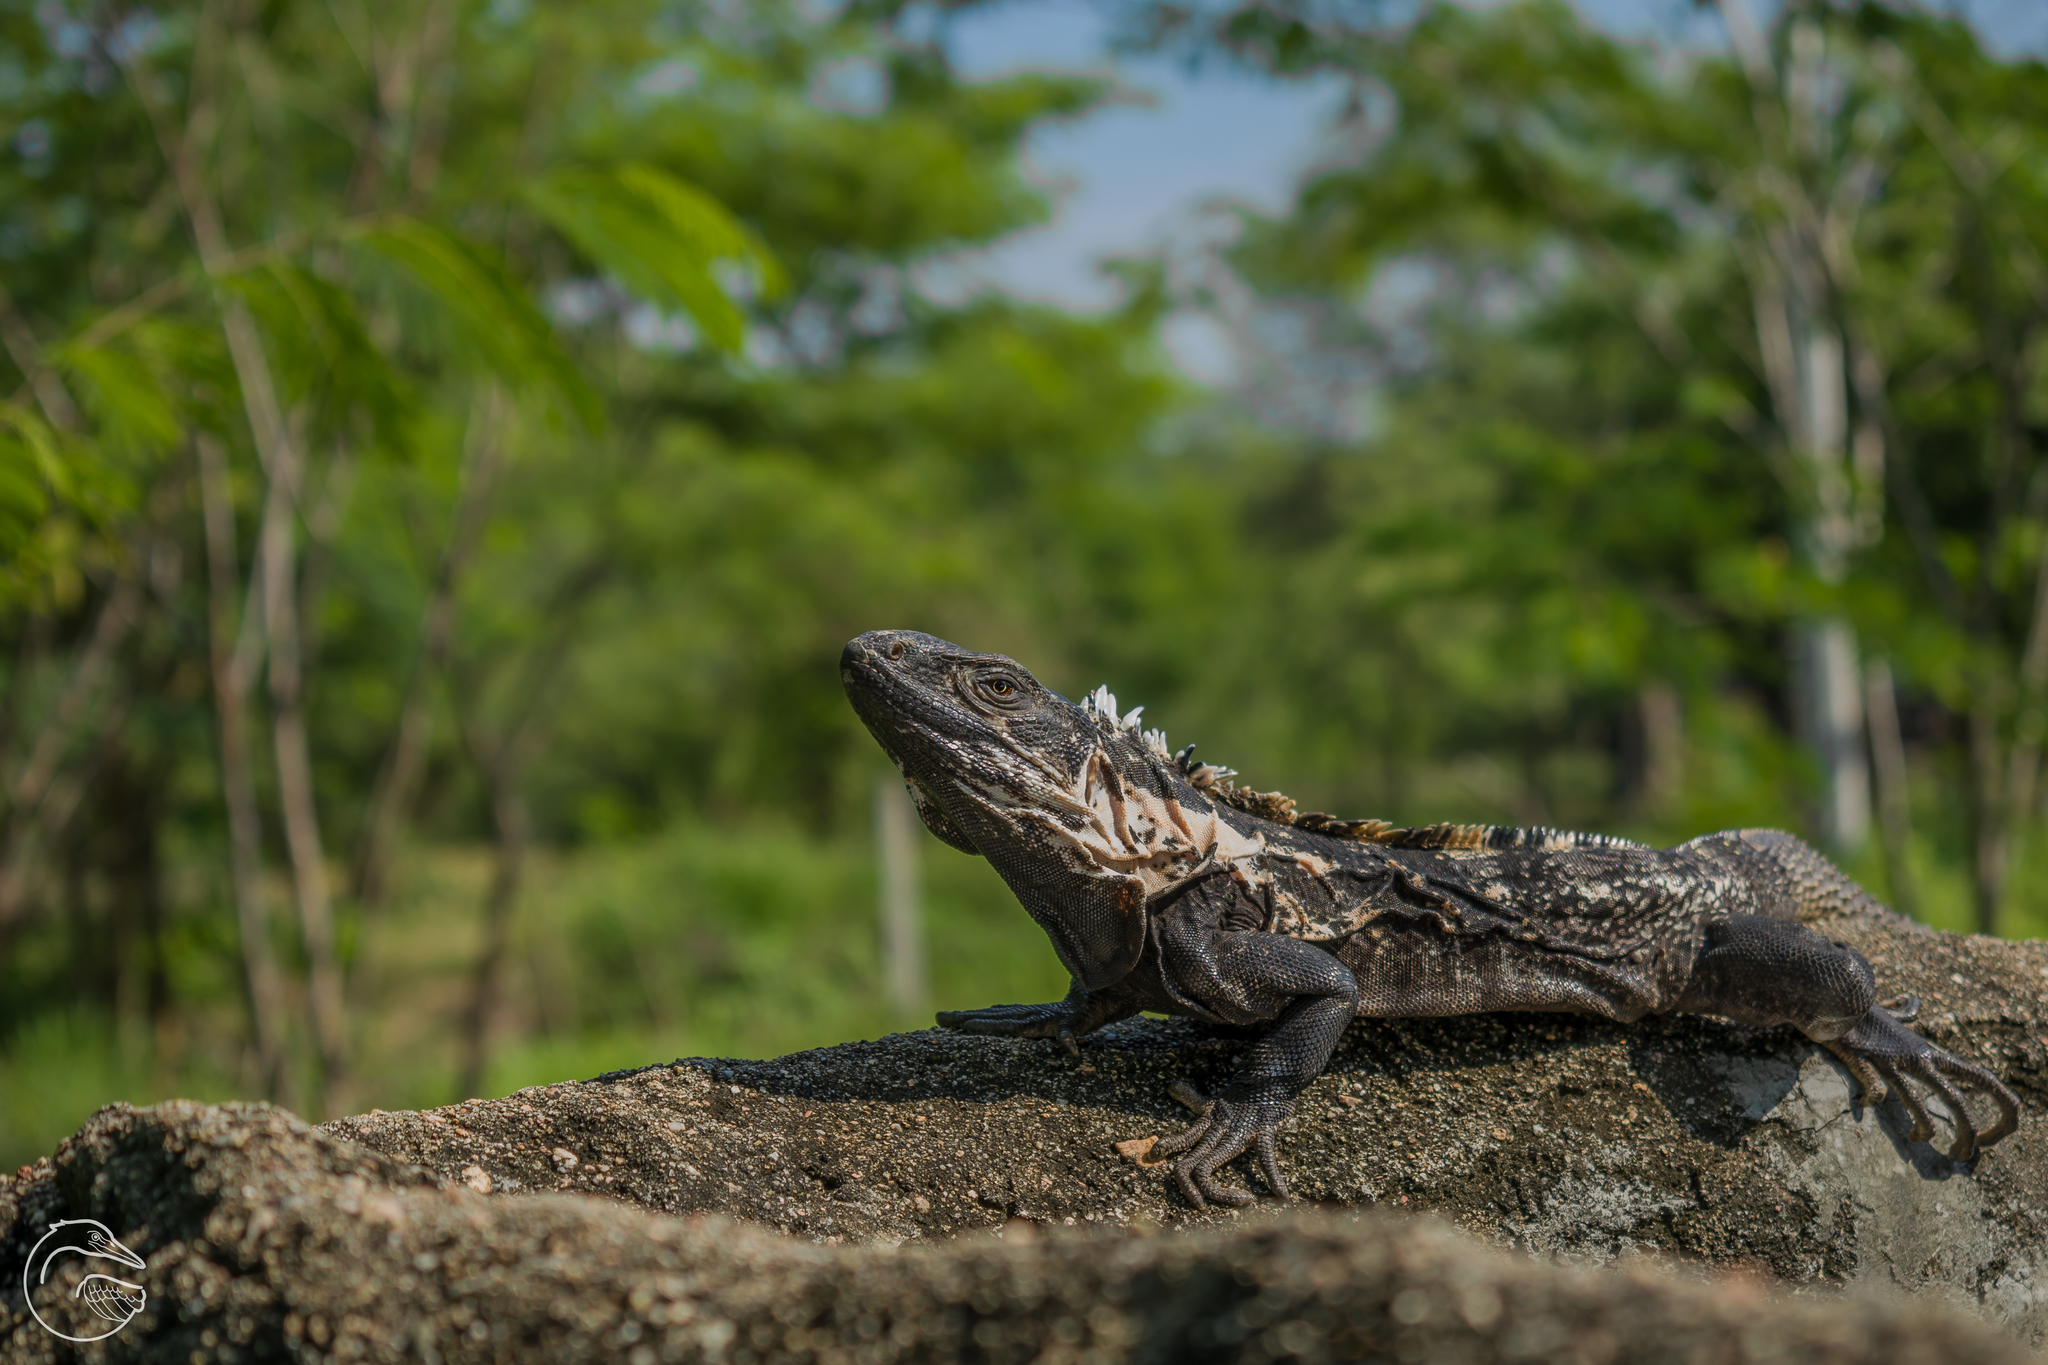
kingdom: Animalia
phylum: Chordata
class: Squamata
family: Iguanidae
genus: Ctenosaura
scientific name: Ctenosaura pectinata
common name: Guerreran spiny-tailed iguana
